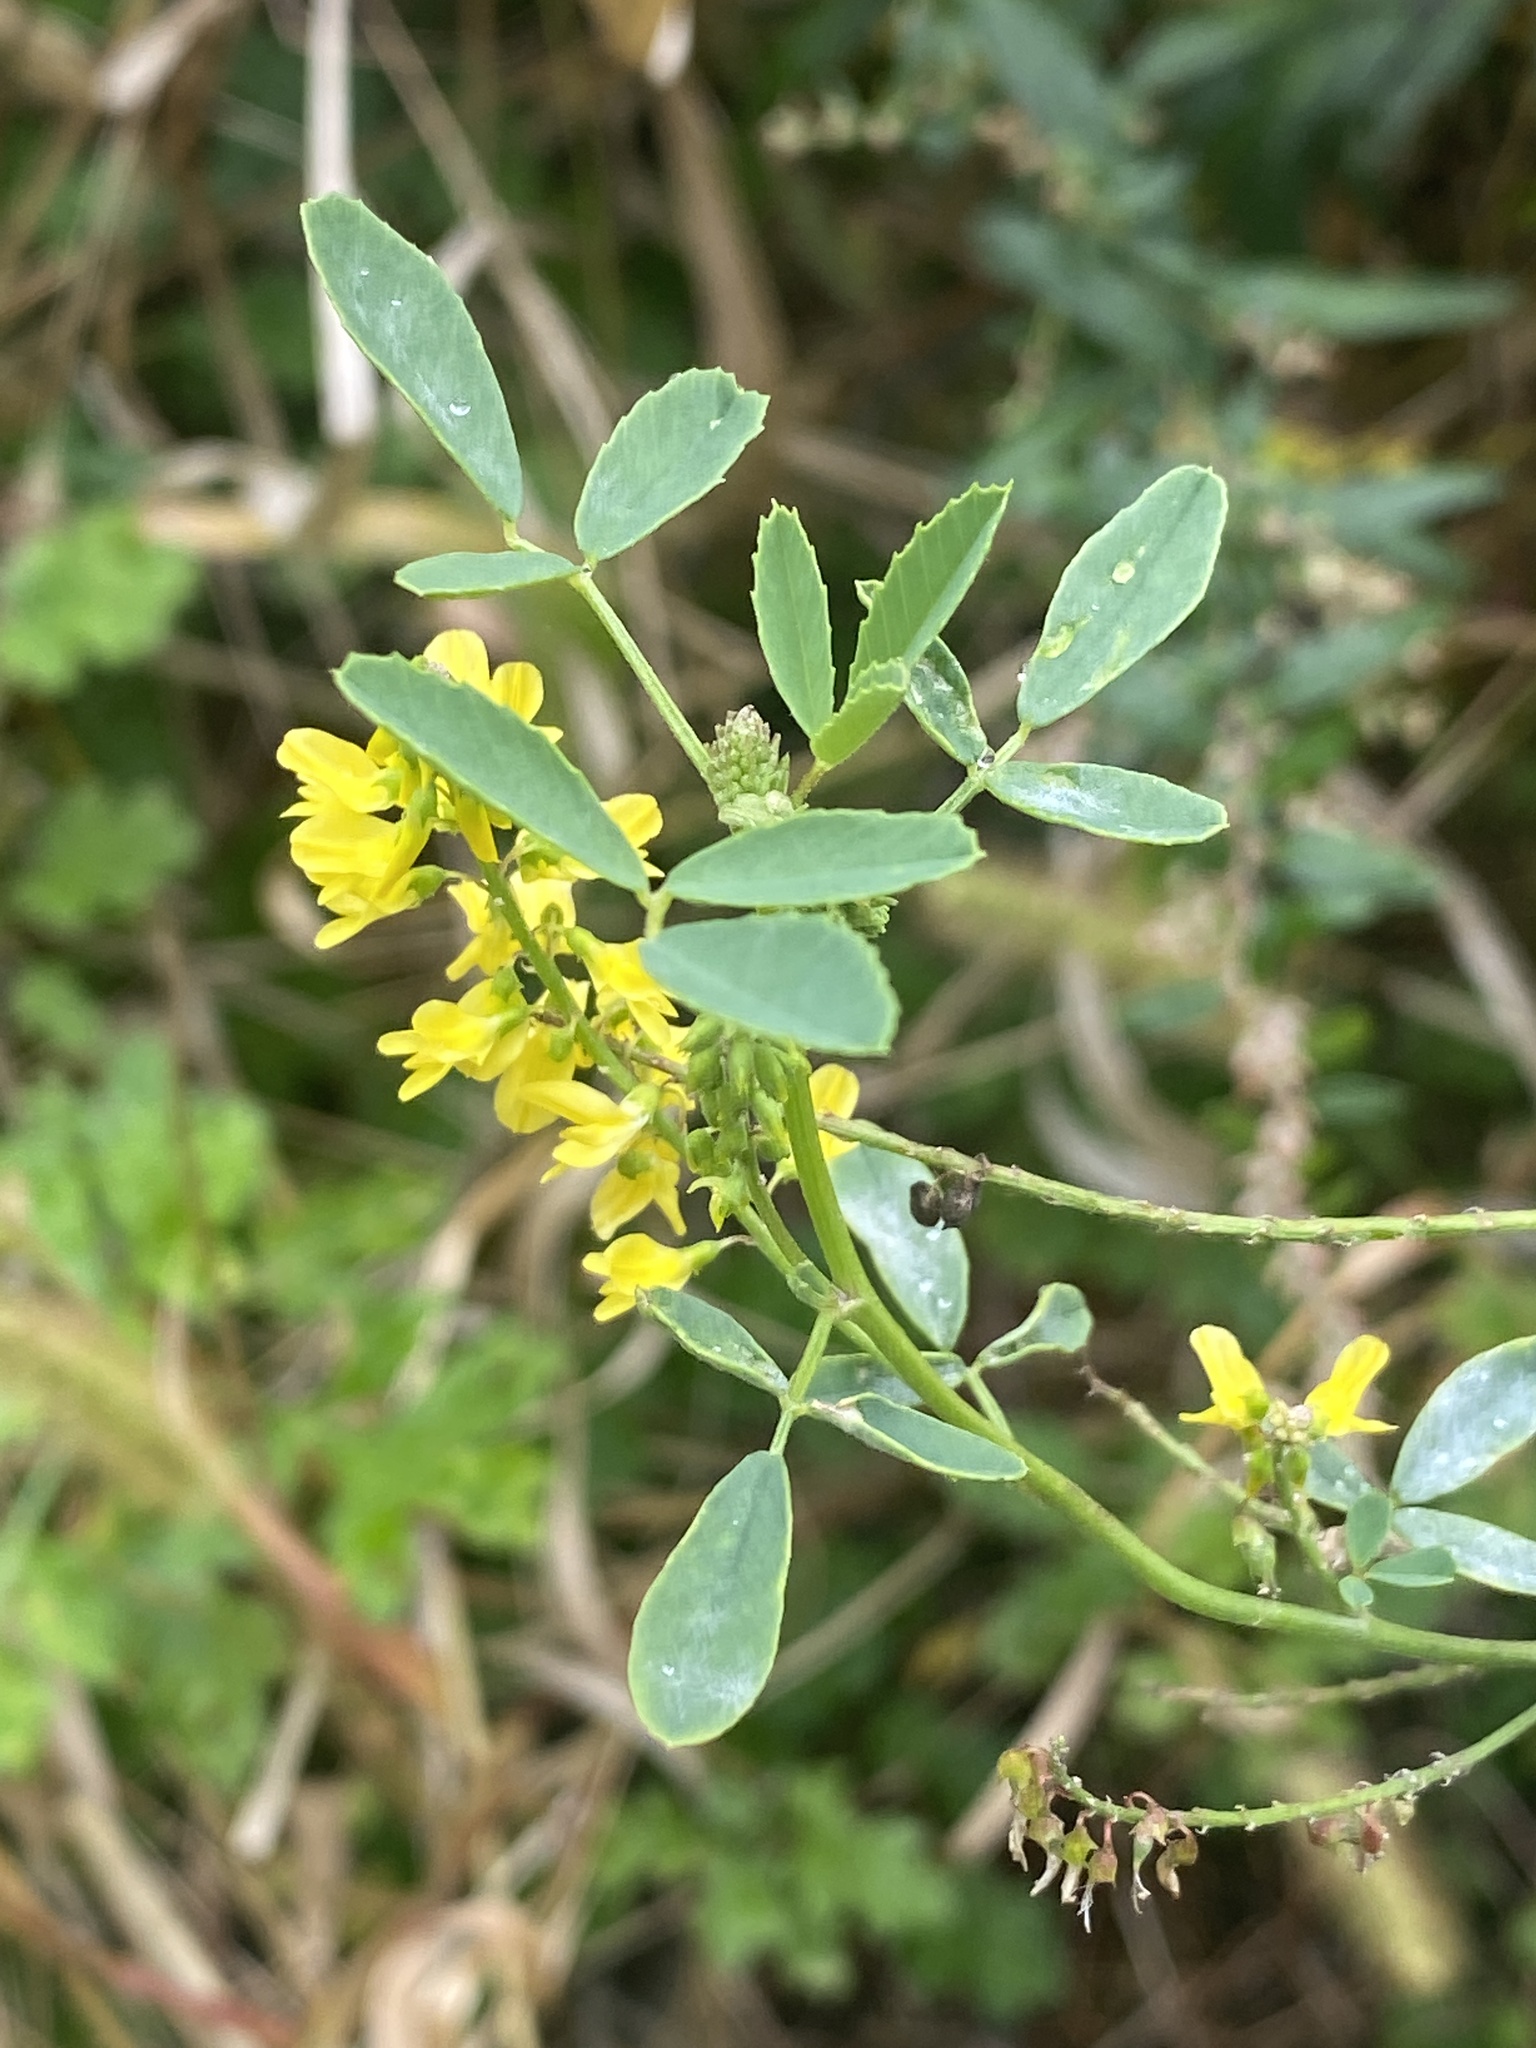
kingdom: Plantae
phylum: Tracheophyta
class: Magnoliopsida
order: Fabales
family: Fabaceae
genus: Melilotus
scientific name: Melilotus officinalis
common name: Sweetclover
